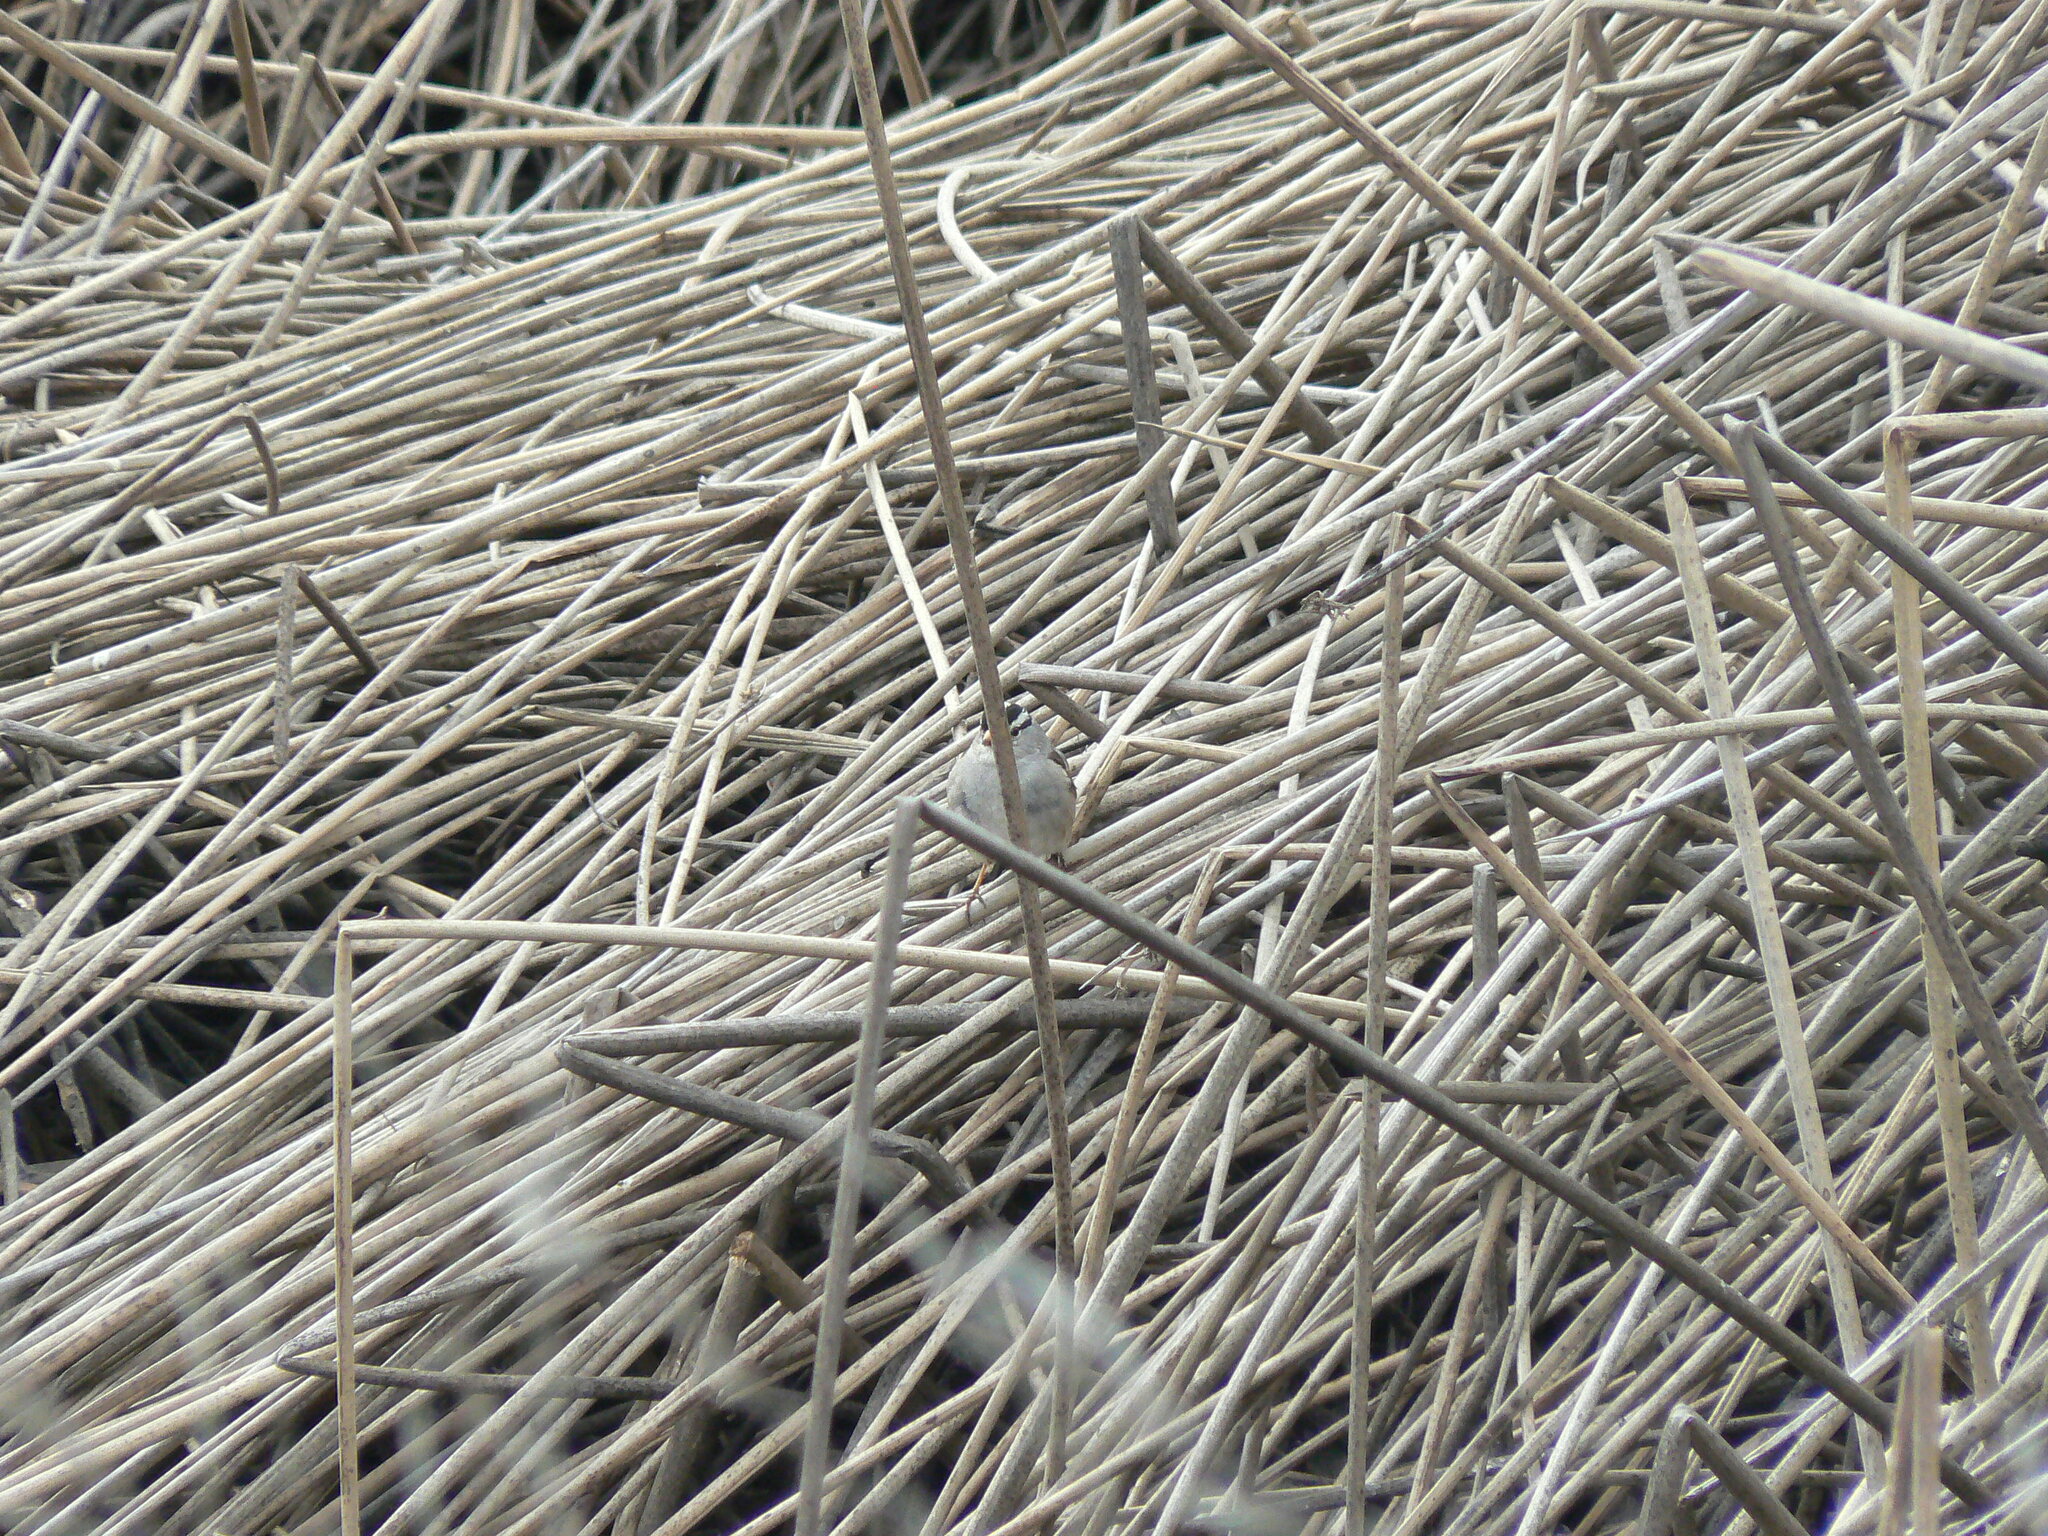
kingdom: Animalia
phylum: Chordata
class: Aves
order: Passeriformes
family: Passerellidae
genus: Zonotrichia
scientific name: Zonotrichia leucophrys
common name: White-crowned sparrow
